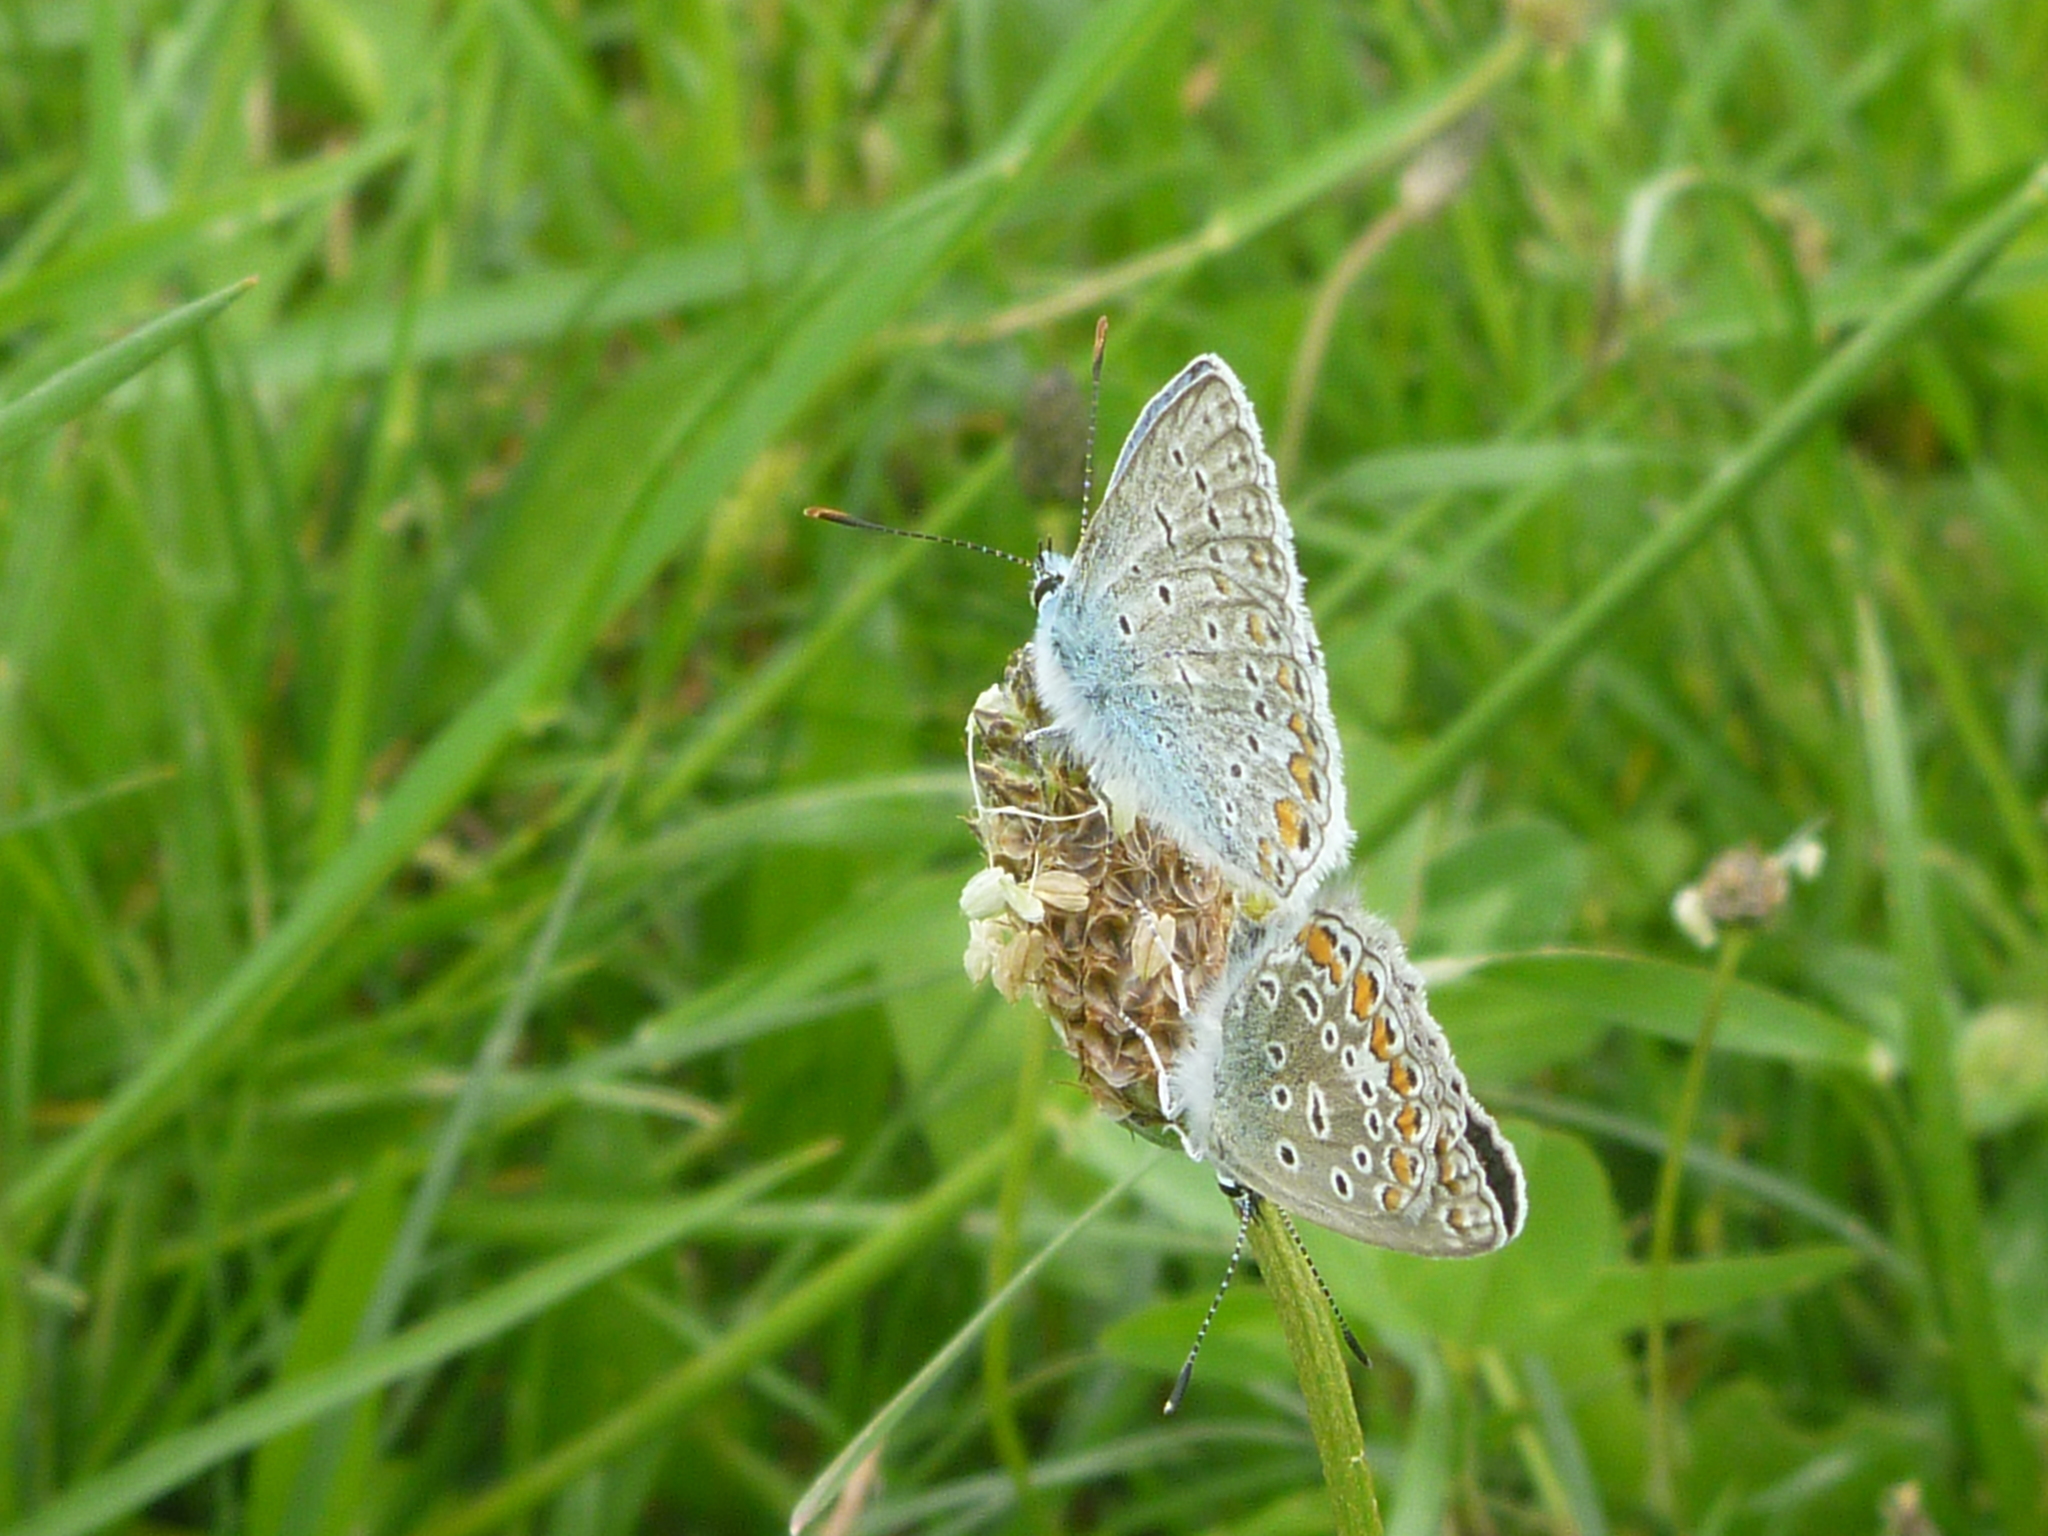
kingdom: Animalia
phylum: Arthropoda
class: Insecta
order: Lepidoptera
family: Lycaenidae
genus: Polyommatus
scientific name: Polyommatus icarus
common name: Common blue
